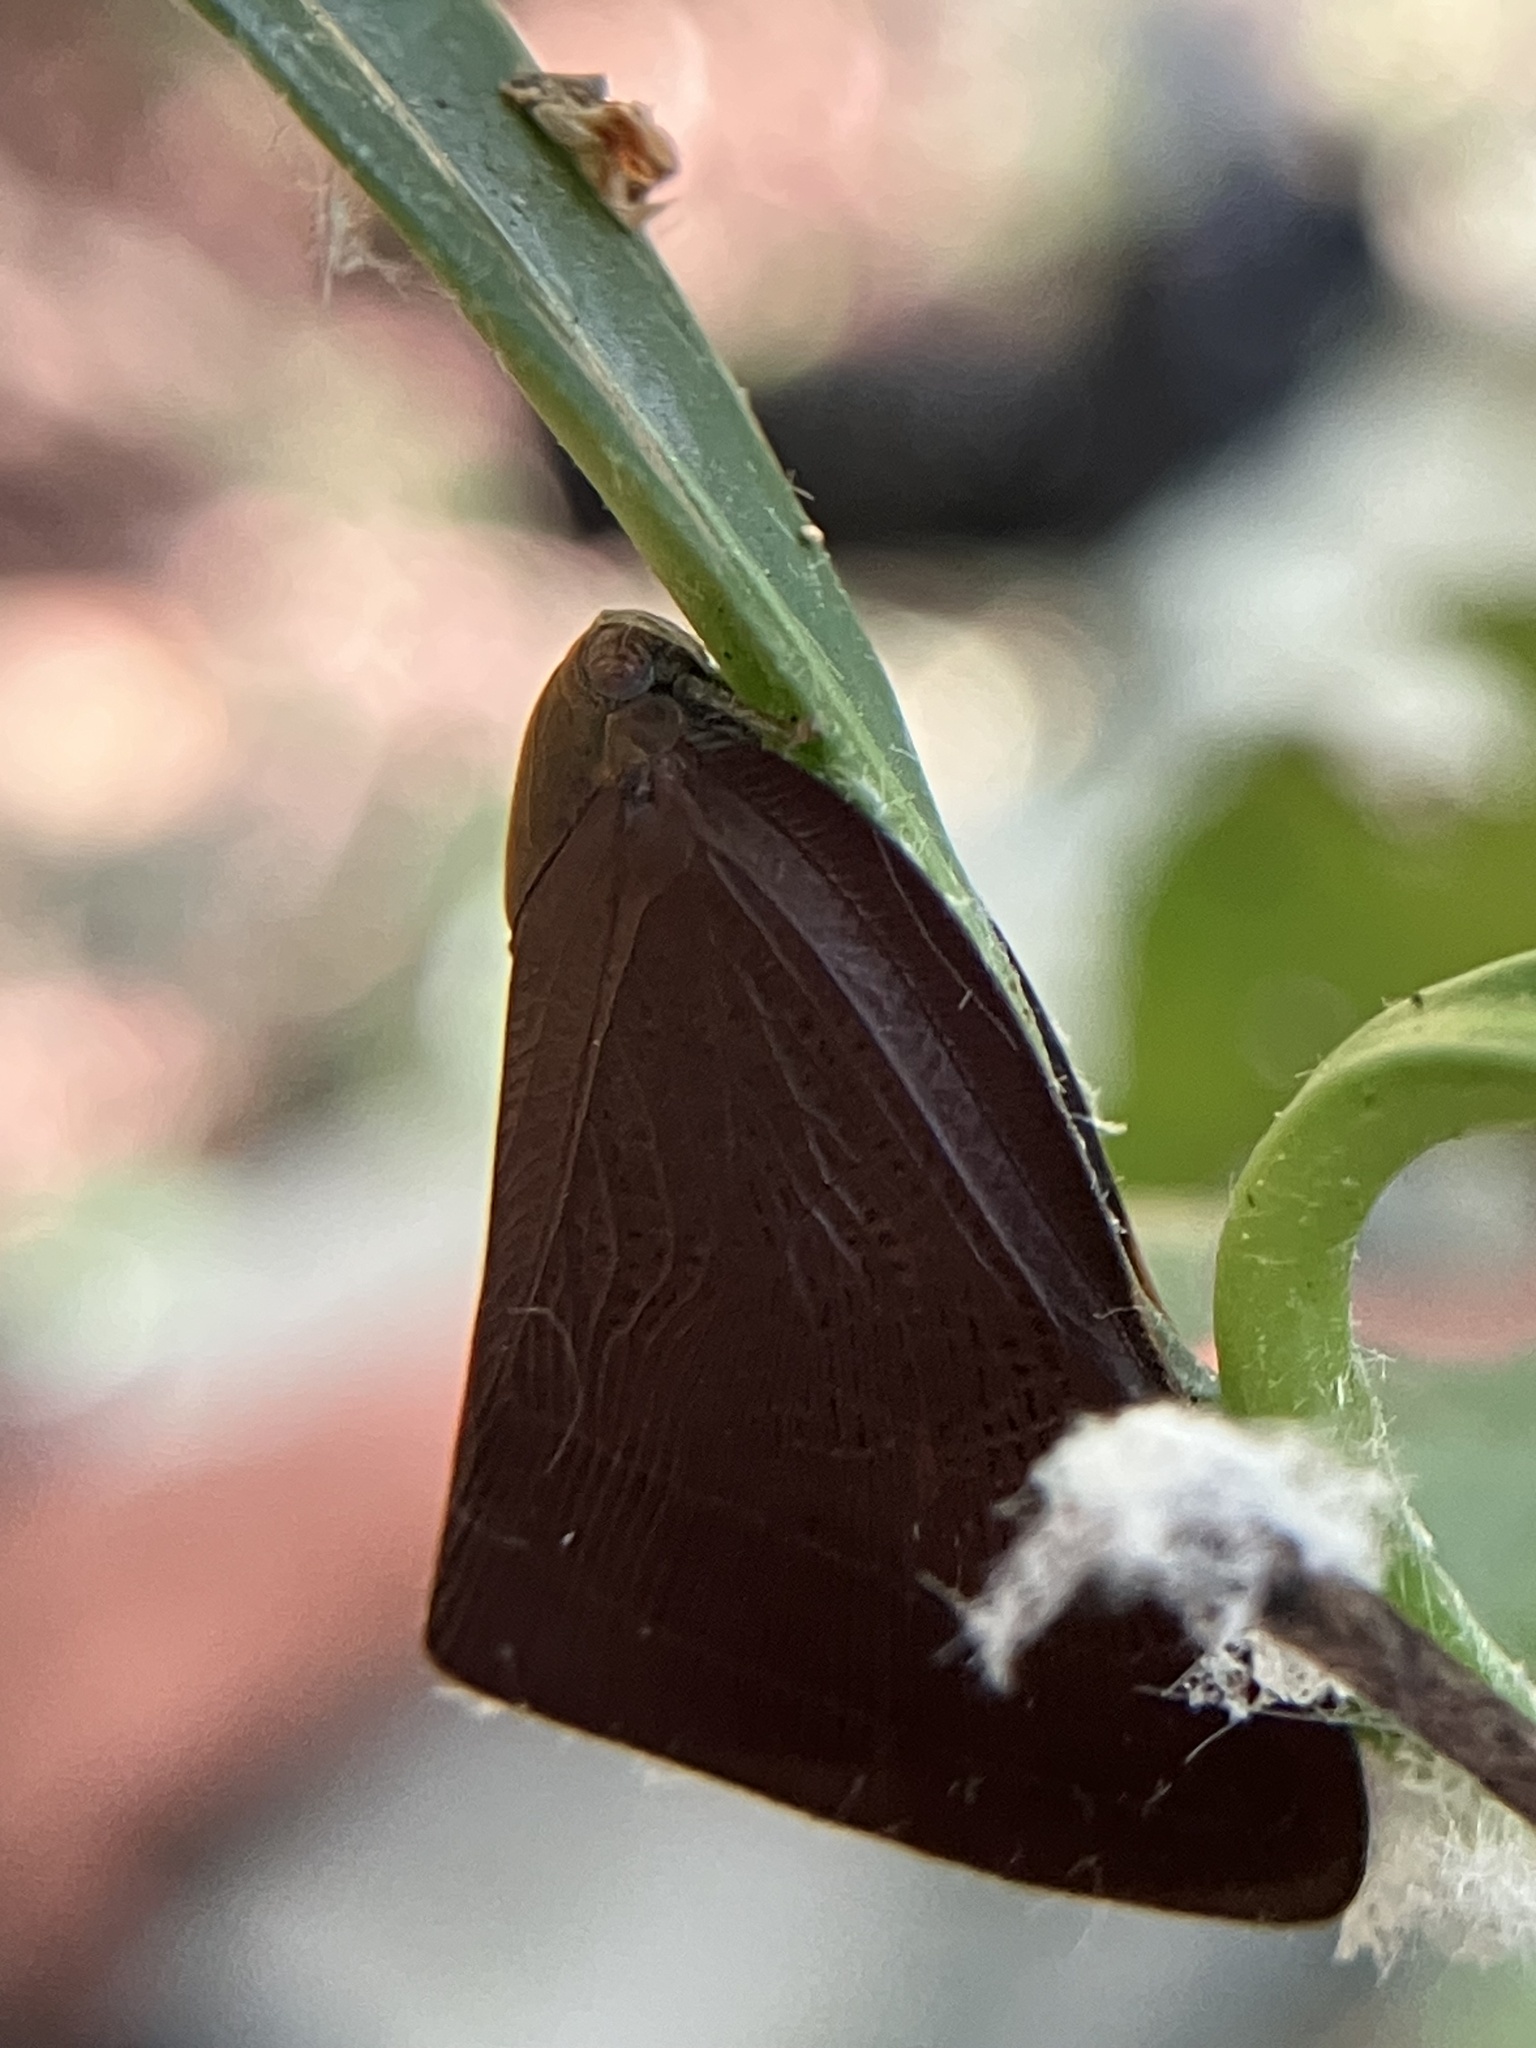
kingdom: Animalia
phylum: Arthropoda
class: Insecta
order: Hemiptera
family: Ricaniidae
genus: Pochazia
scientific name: Pochazia antica
